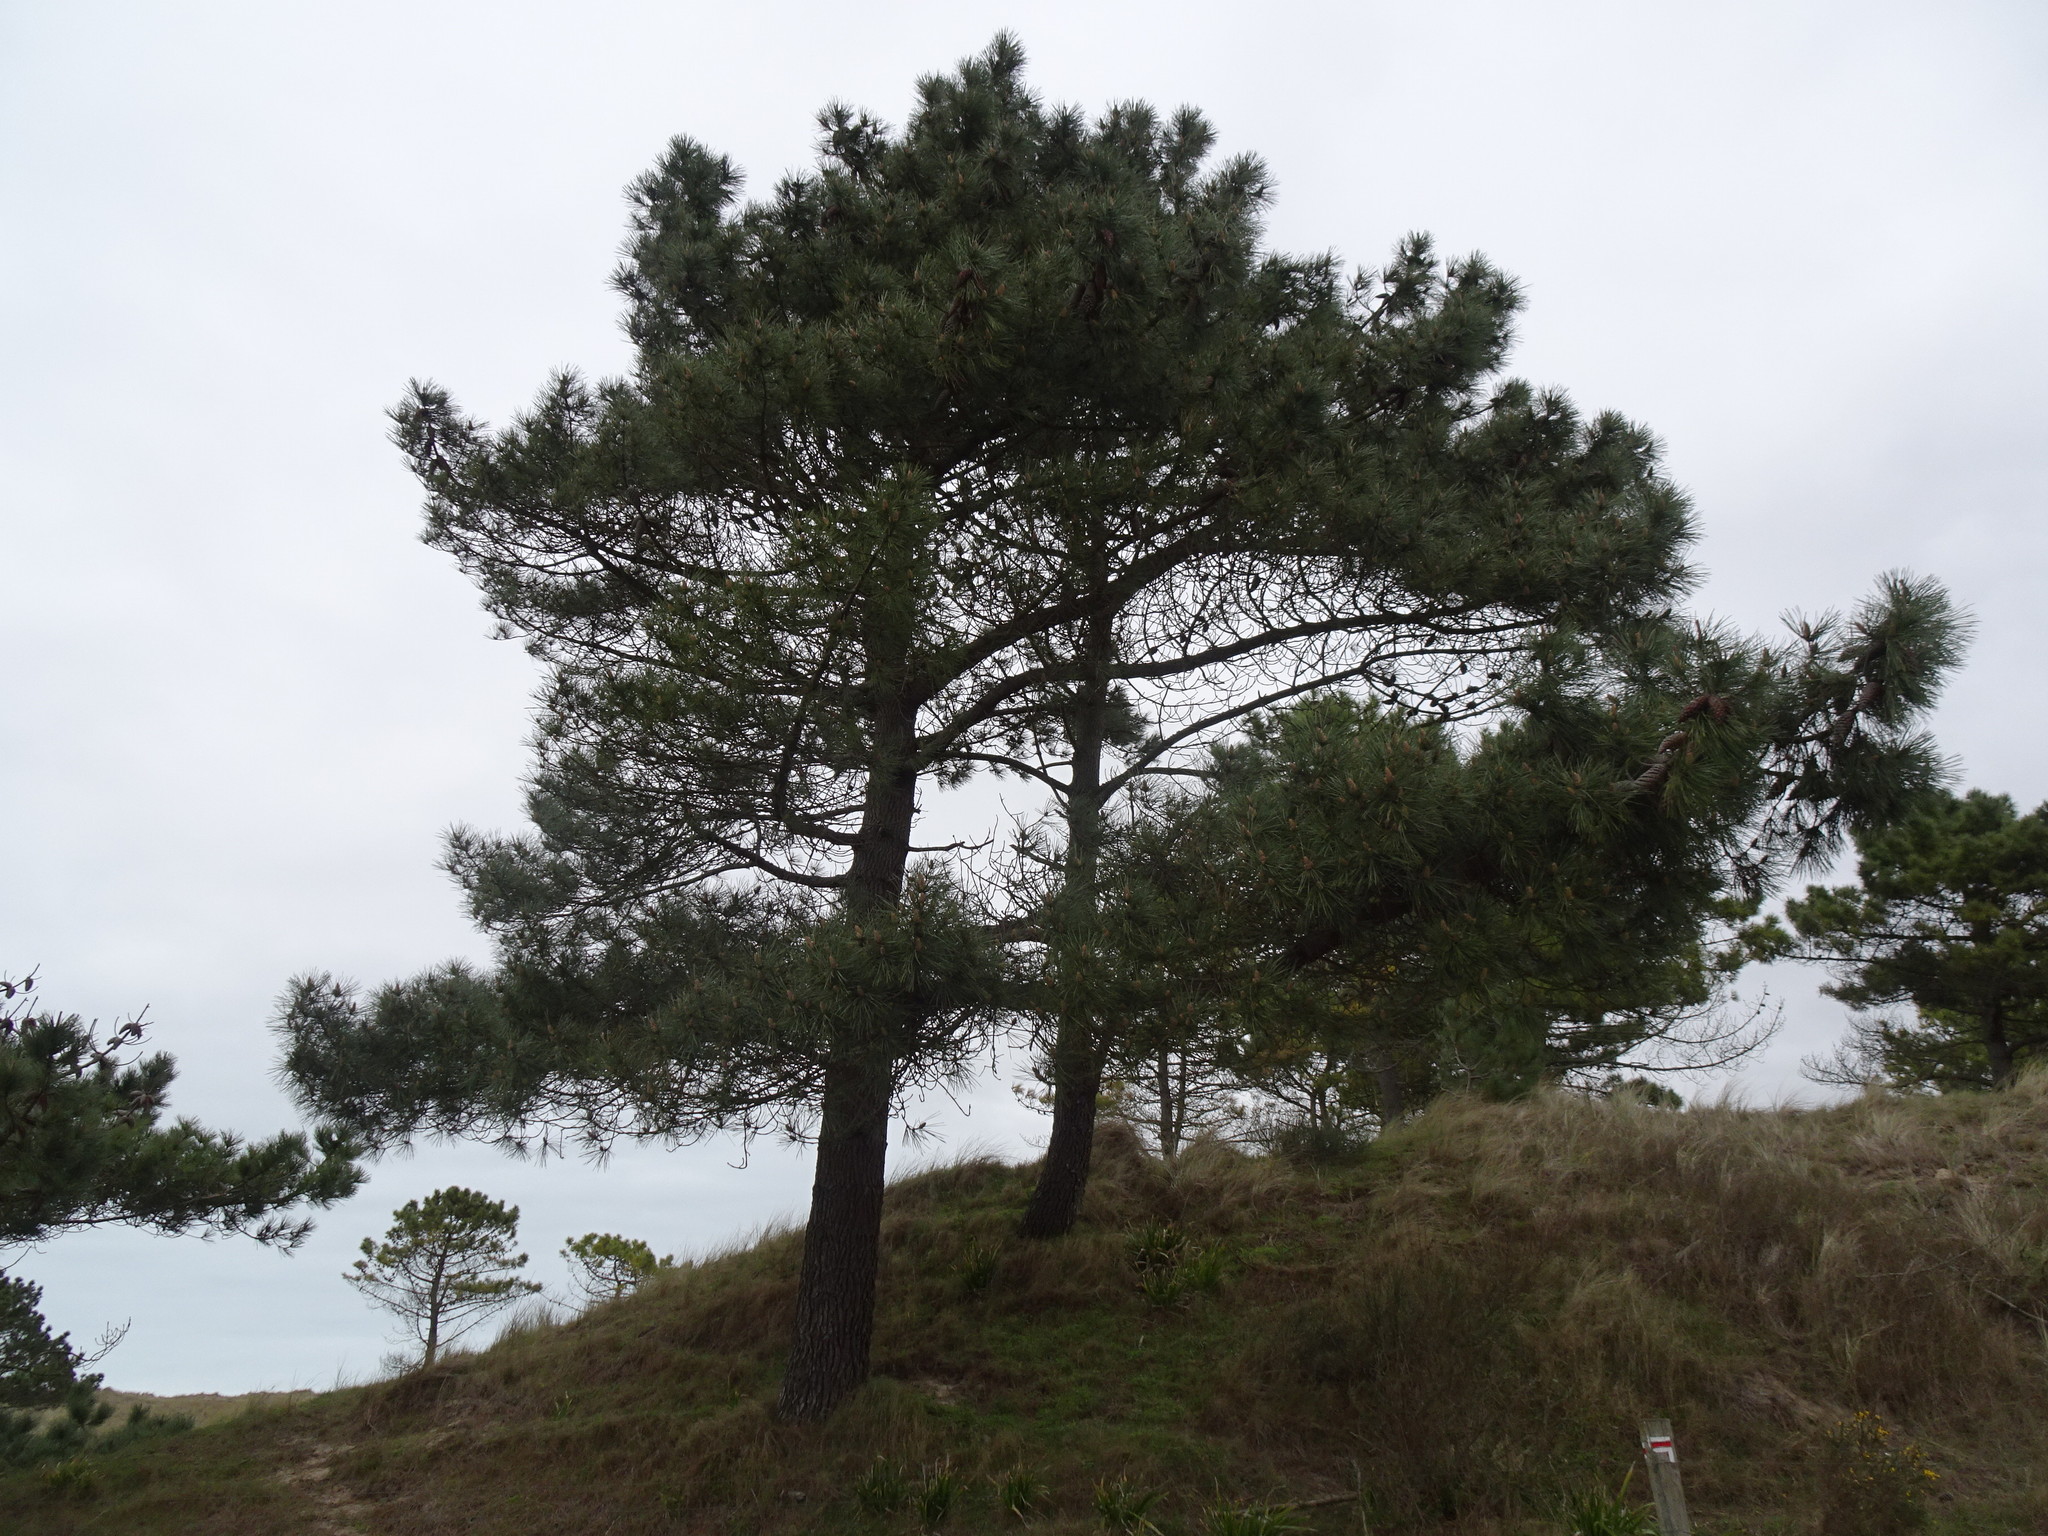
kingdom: Plantae
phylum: Tracheophyta
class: Pinopsida
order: Pinales
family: Pinaceae
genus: Pinus
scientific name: Pinus pinaster
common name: Maritime pine
